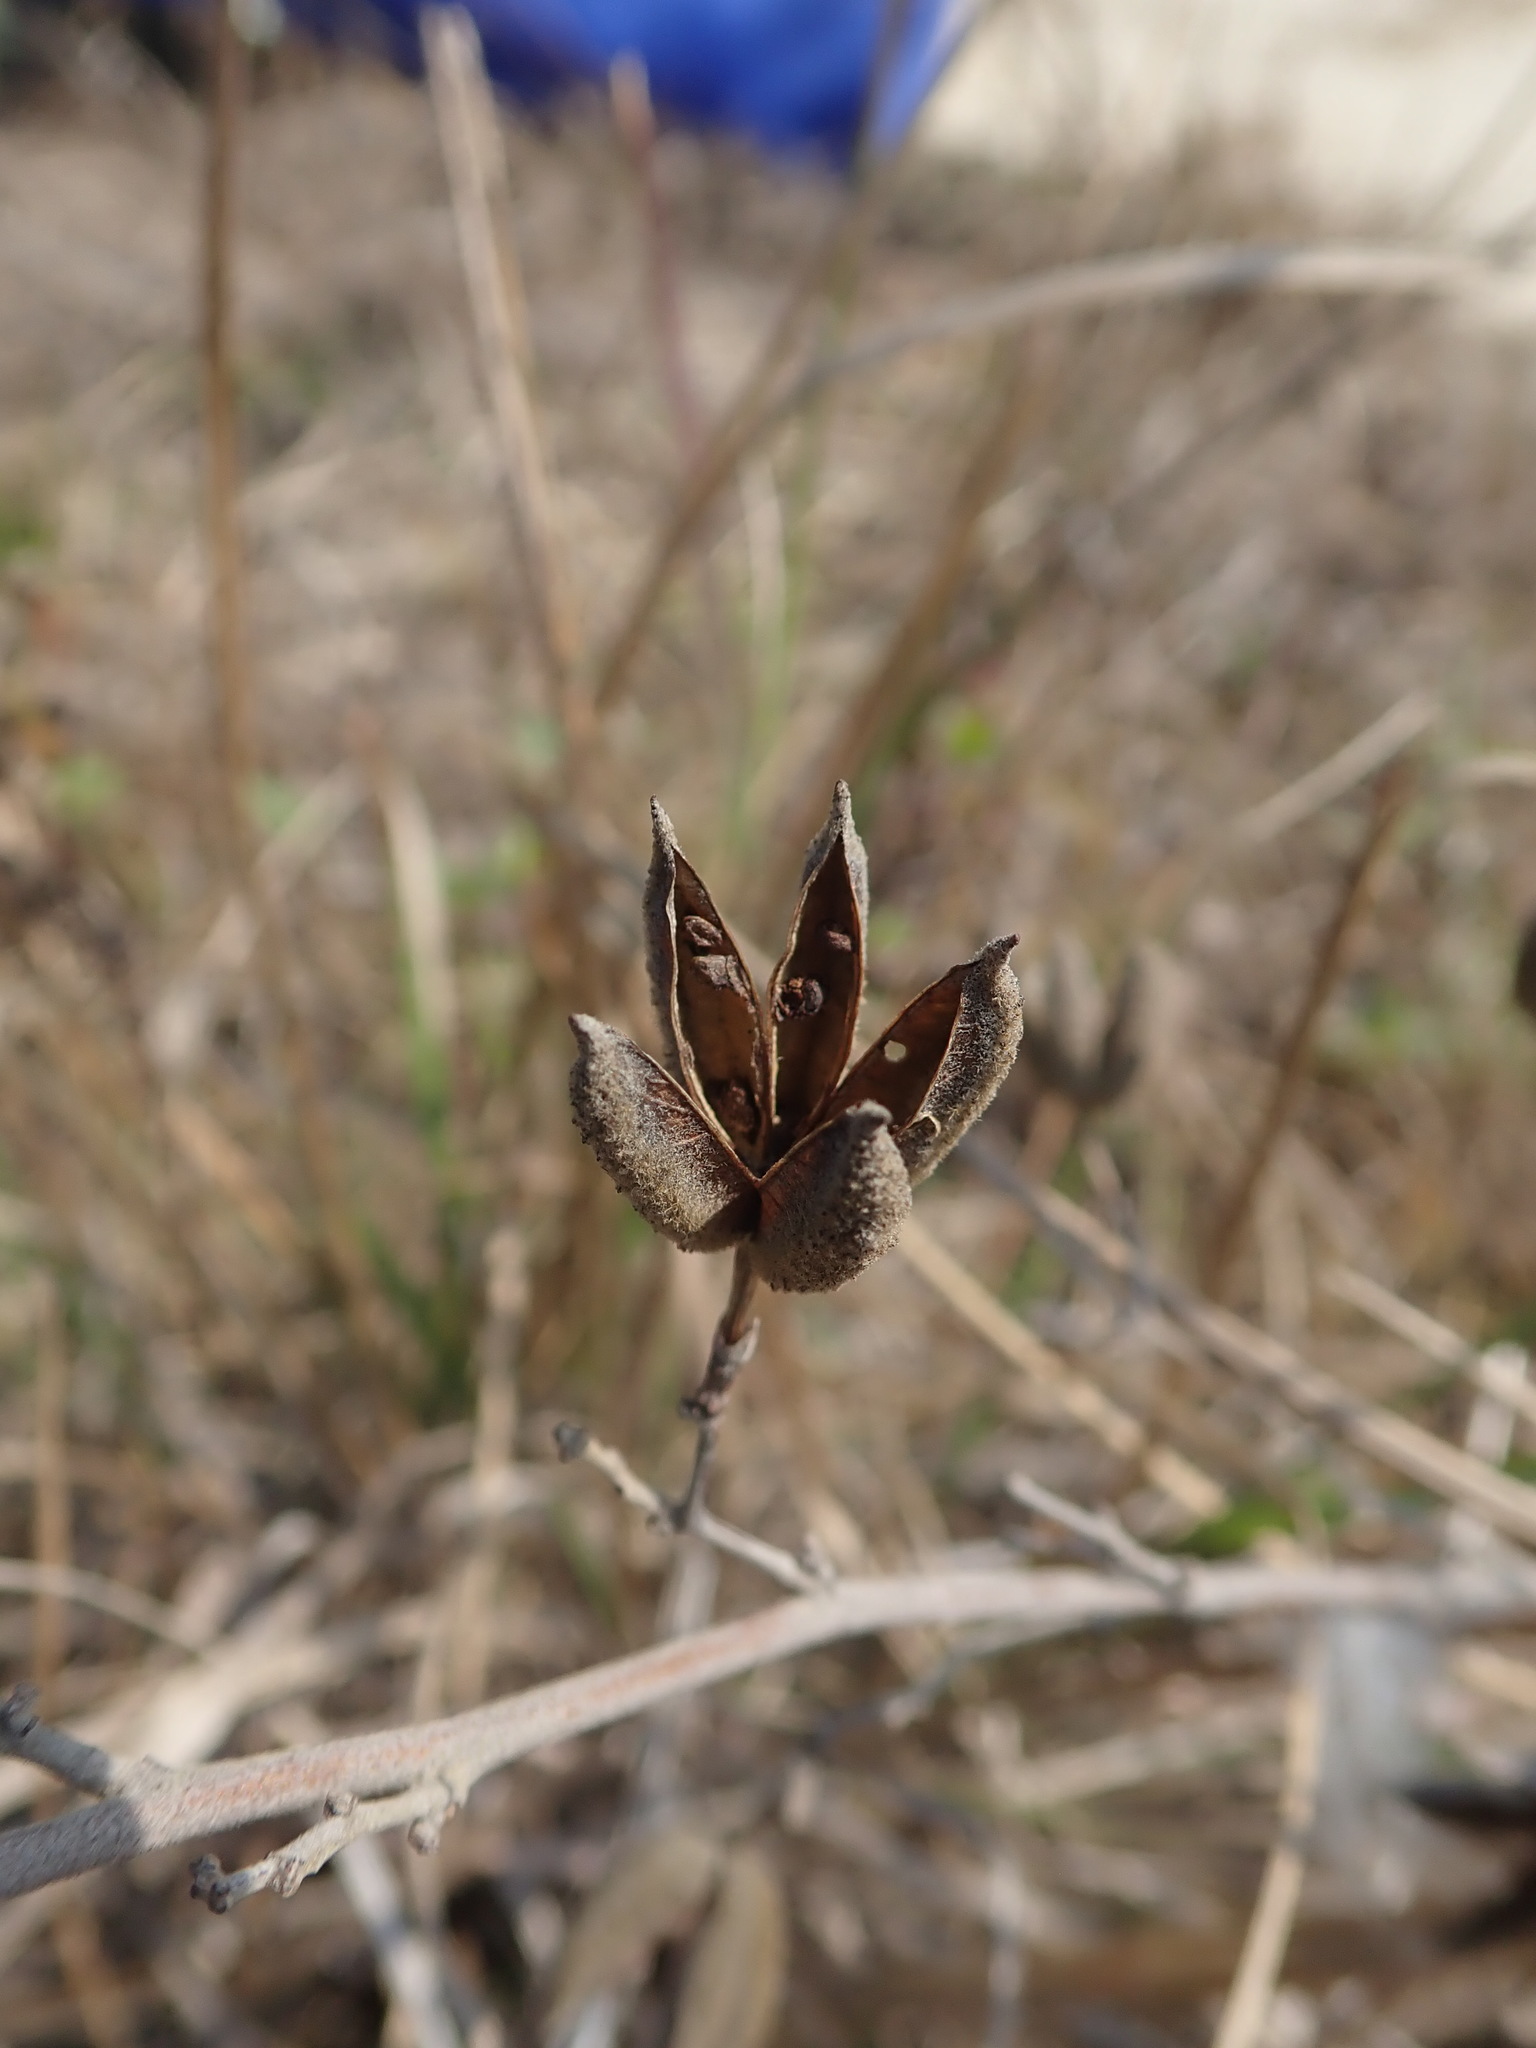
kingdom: Plantae
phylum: Tracheophyta
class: Magnoliopsida
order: Malvales
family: Malvaceae
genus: Helicteres
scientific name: Helicteres angustifolia
